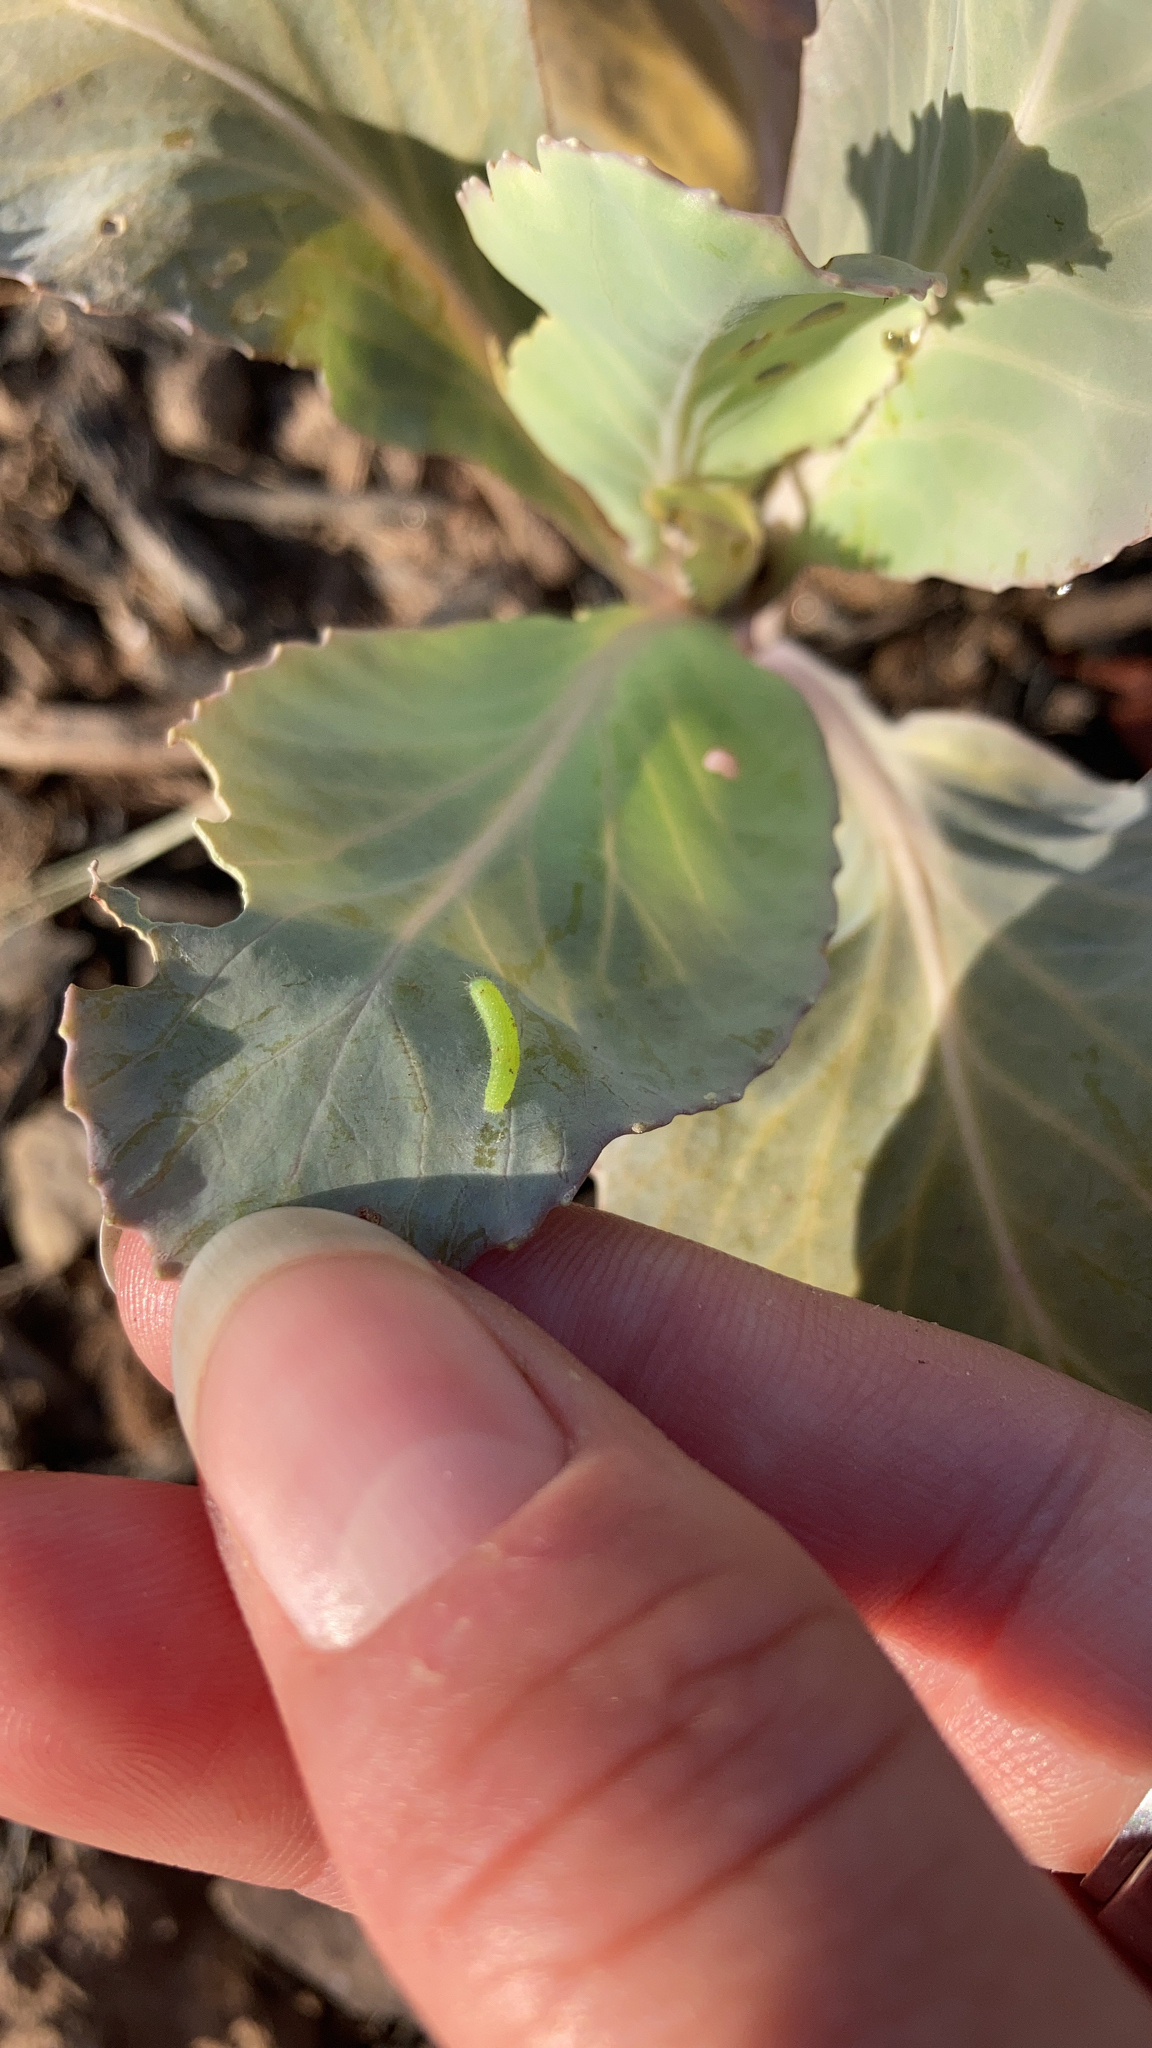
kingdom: Animalia
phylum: Arthropoda
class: Insecta
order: Lepidoptera
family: Pieridae
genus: Pieris
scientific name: Pieris rapae
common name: Small white
